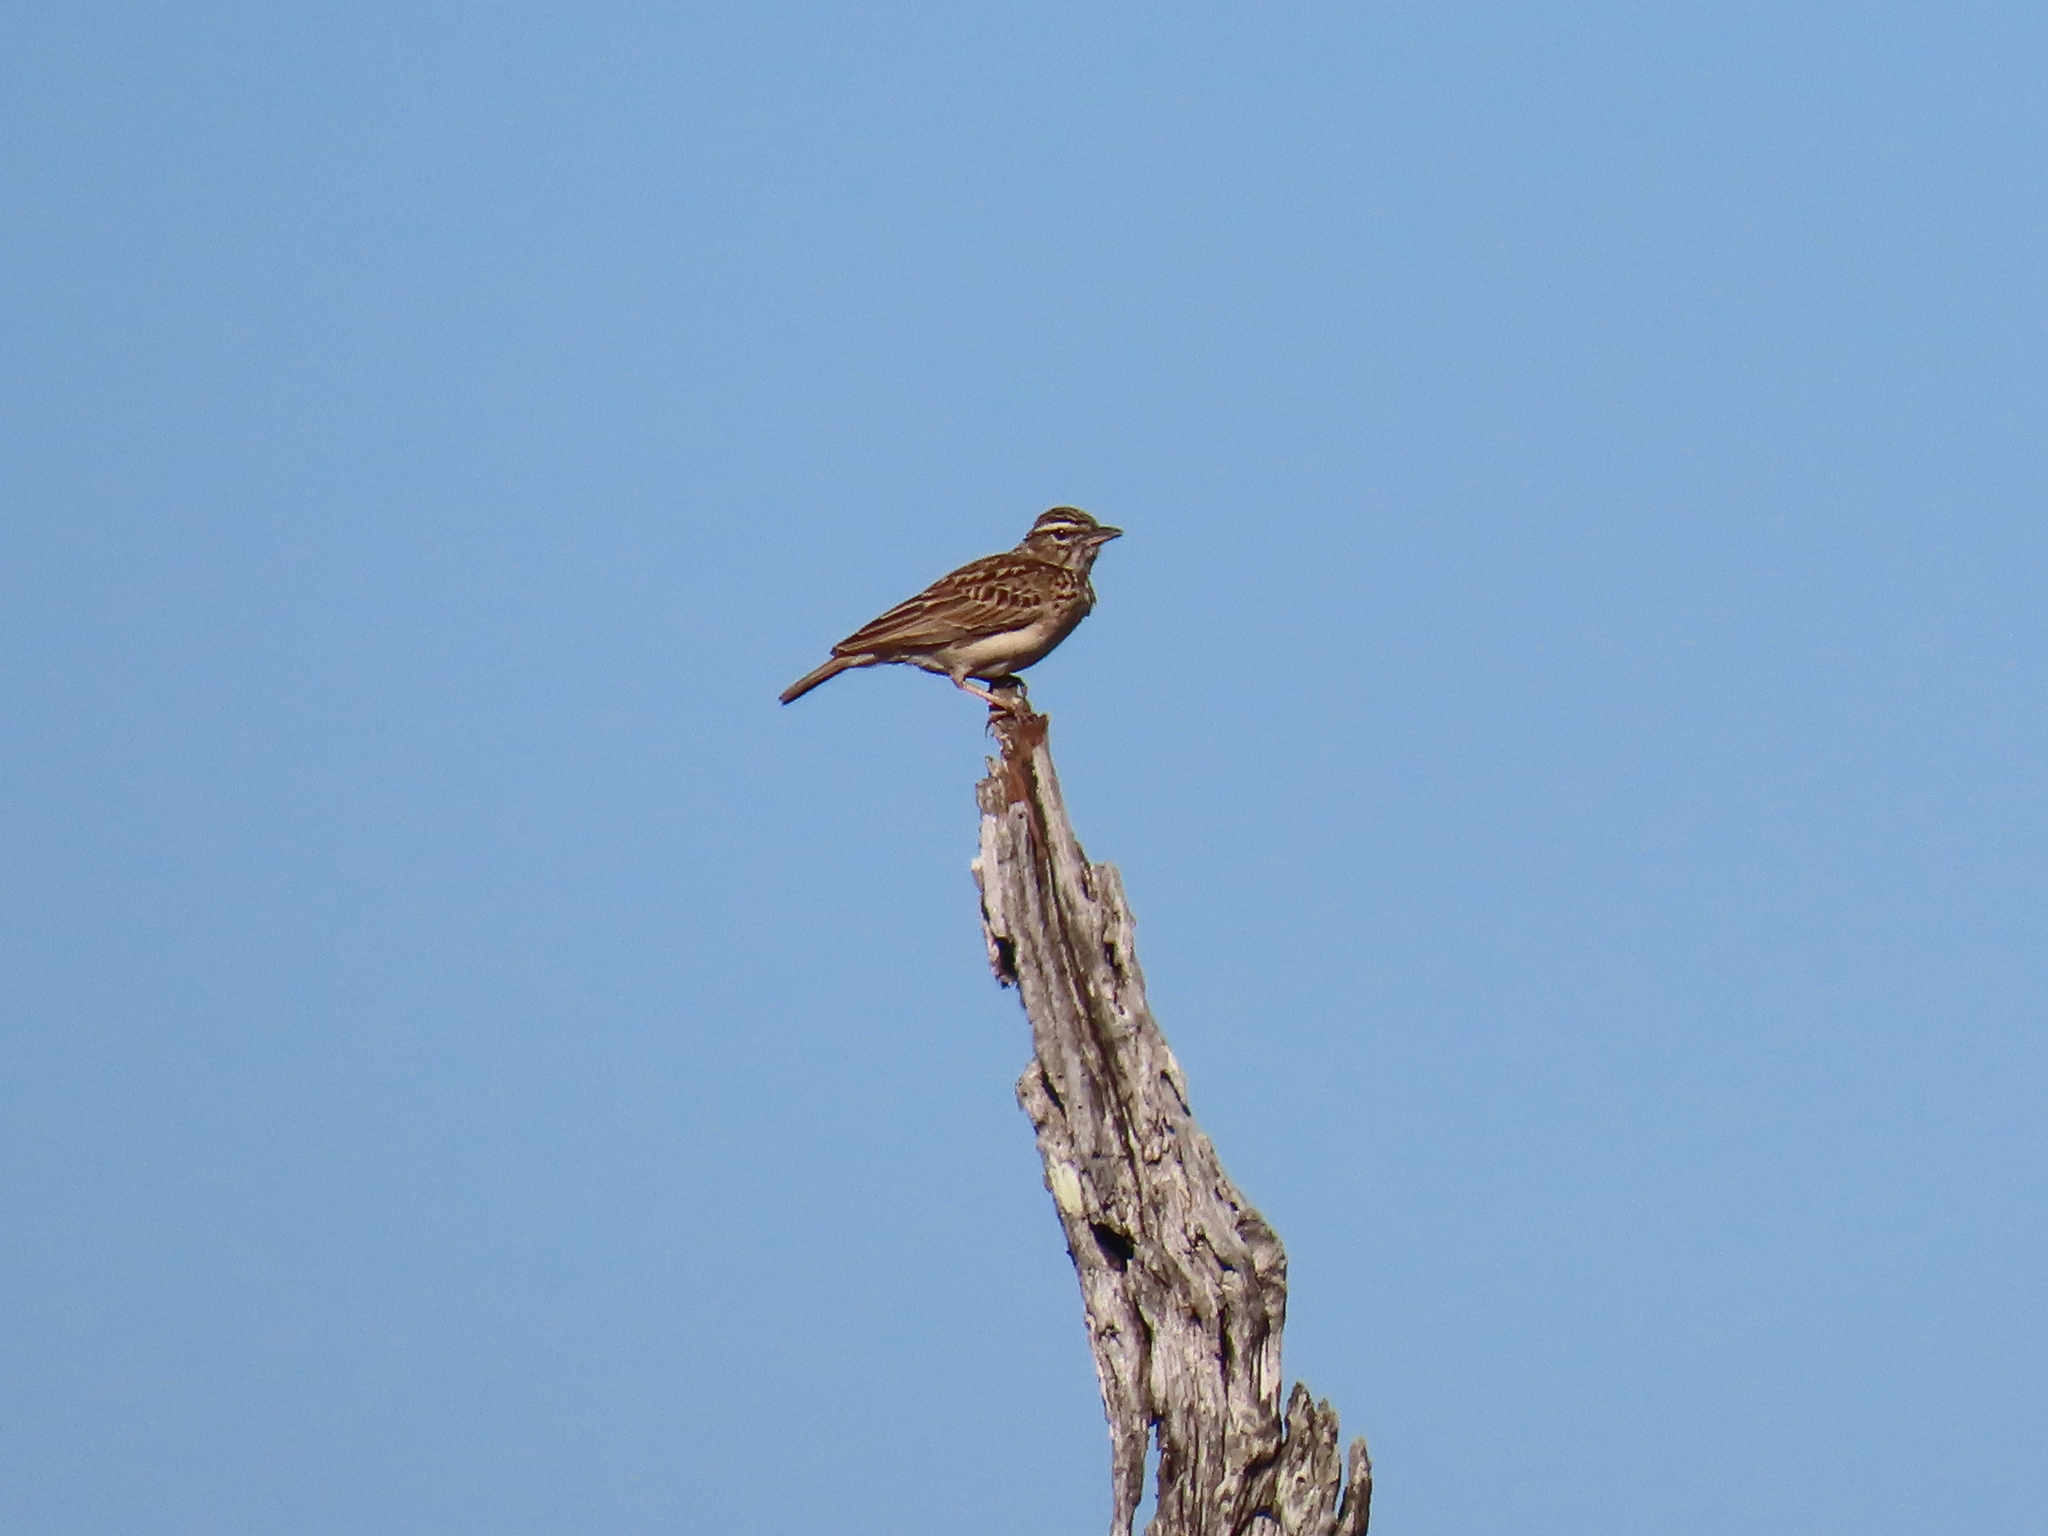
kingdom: Animalia
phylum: Chordata
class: Aves
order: Passeriformes
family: Alaudidae
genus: Calendulauda
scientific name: Calendulauda sabota
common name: Sabota lark
